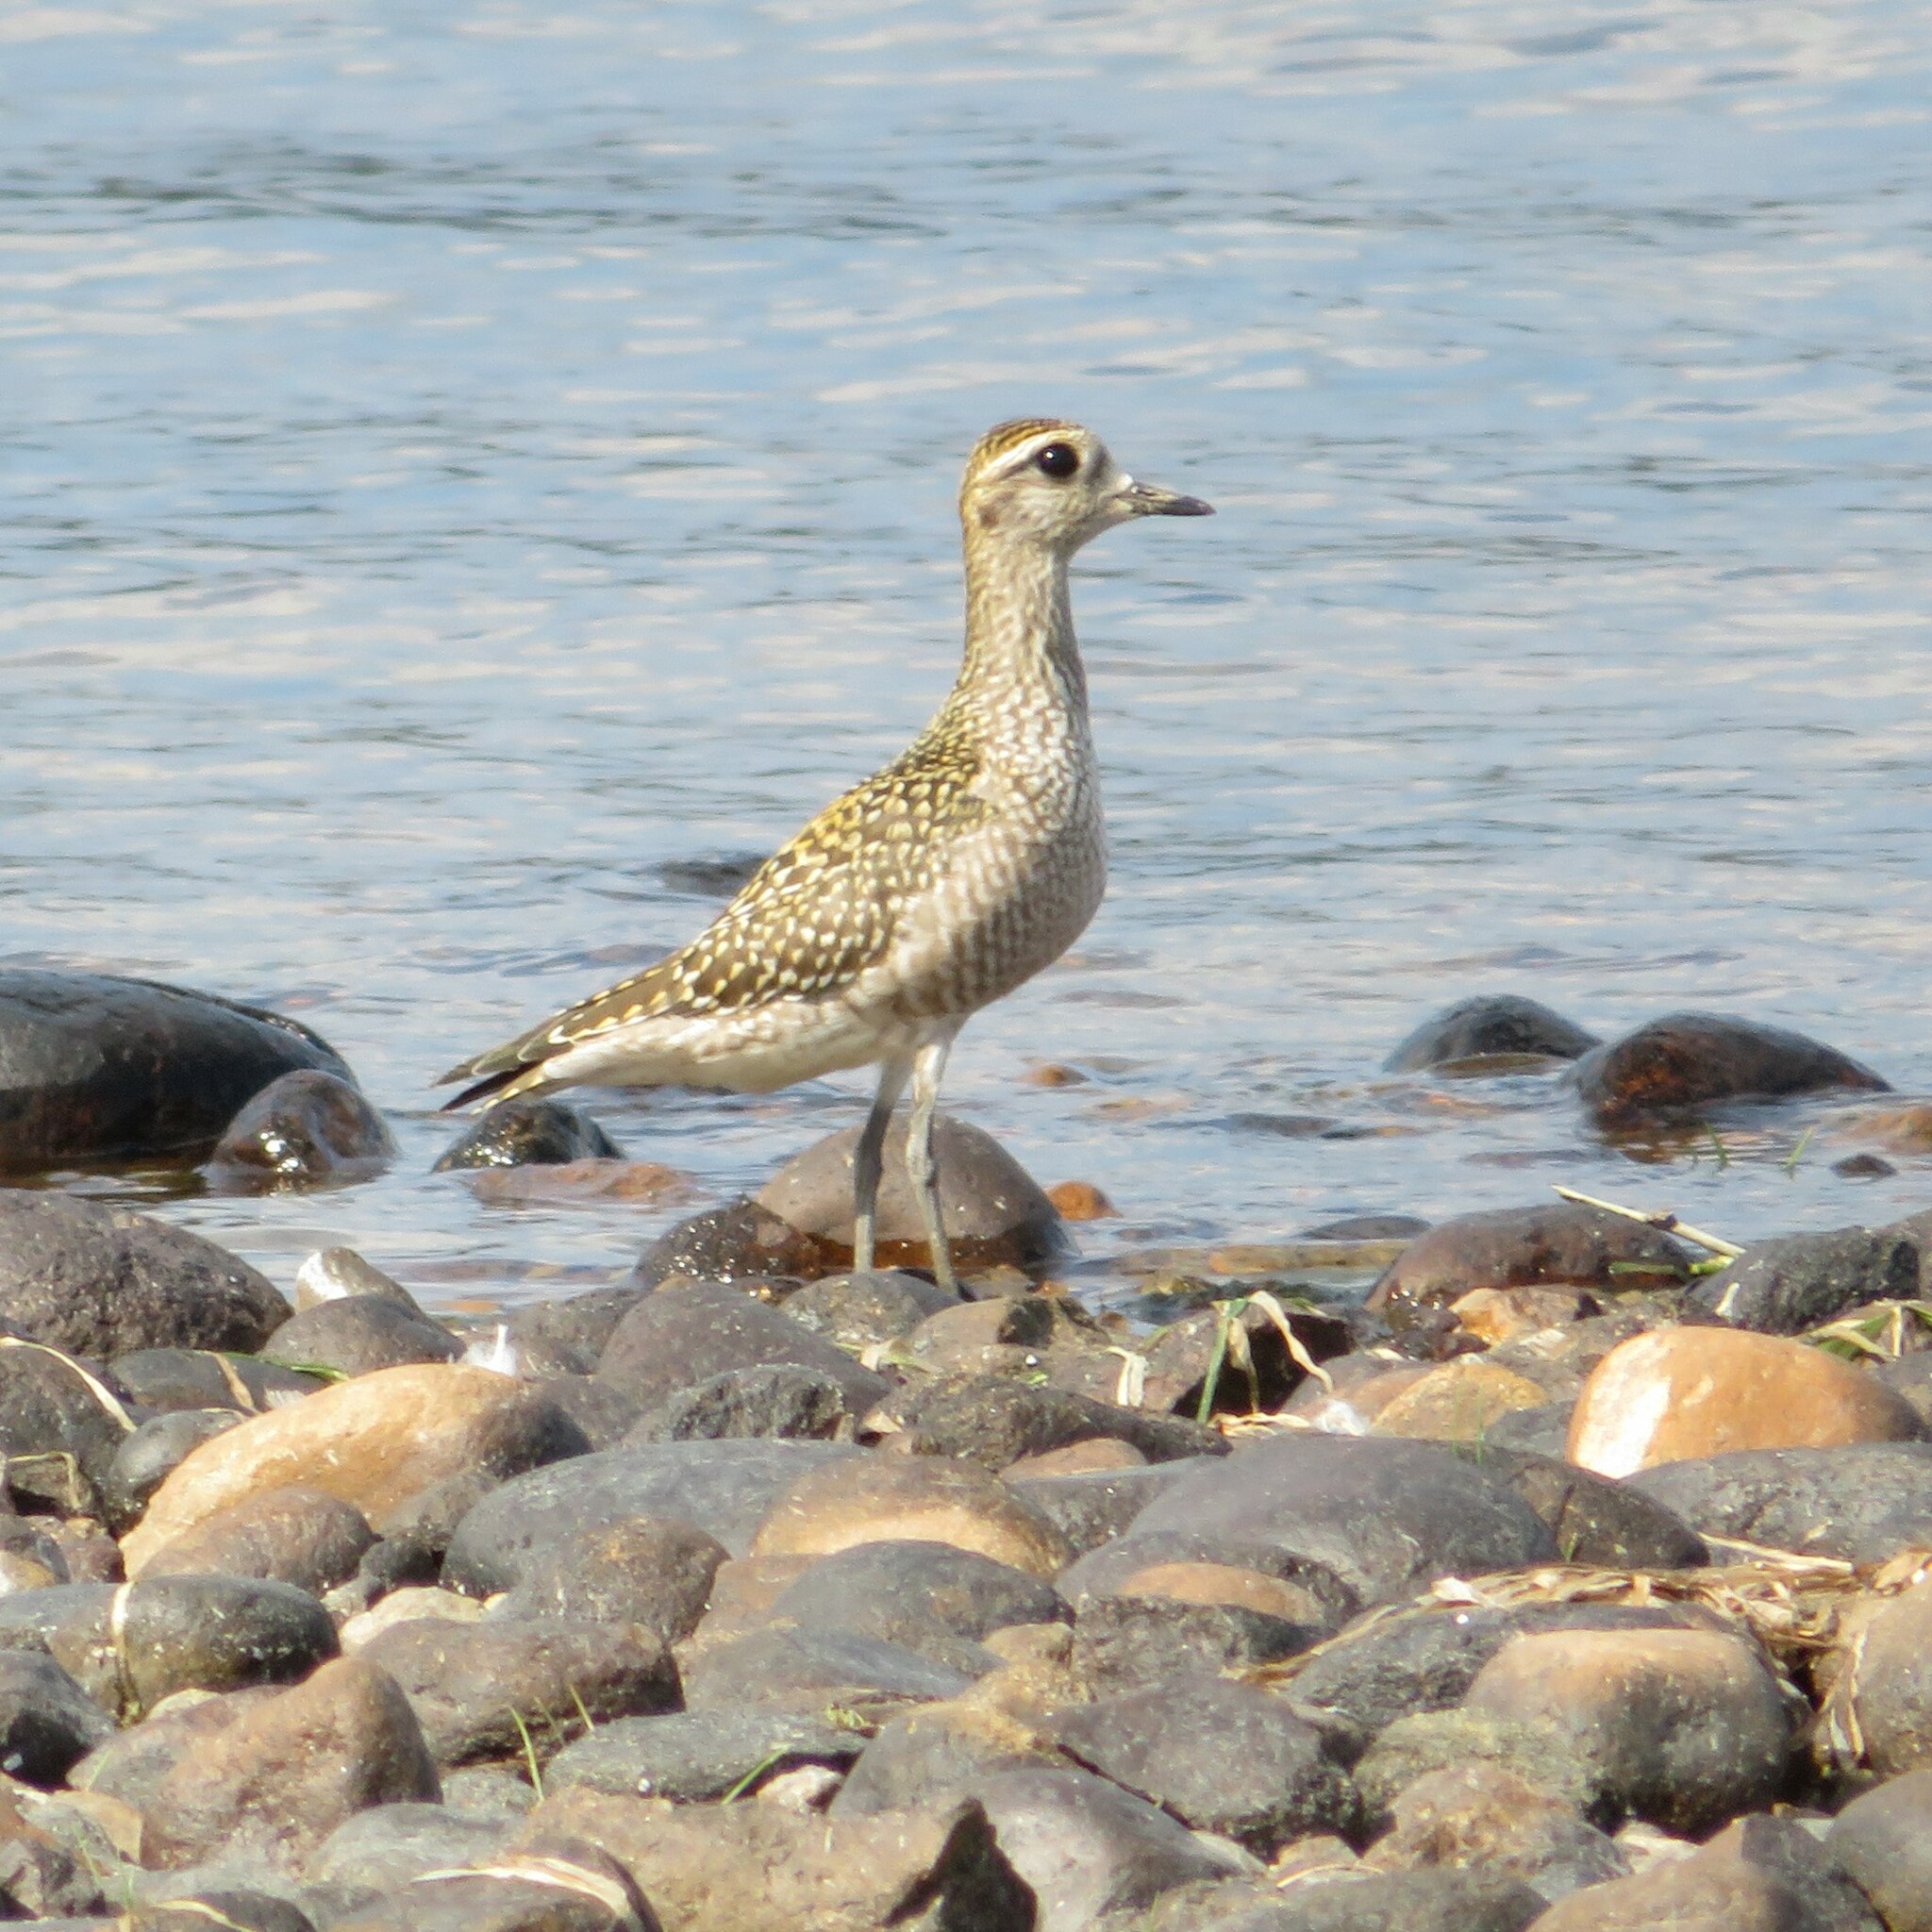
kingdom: Animalia
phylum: Chordata
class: Aves
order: Charadriiformes
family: Charadriidae
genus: Pluvialis
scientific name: Pluvialis dominica
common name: American golden plover
